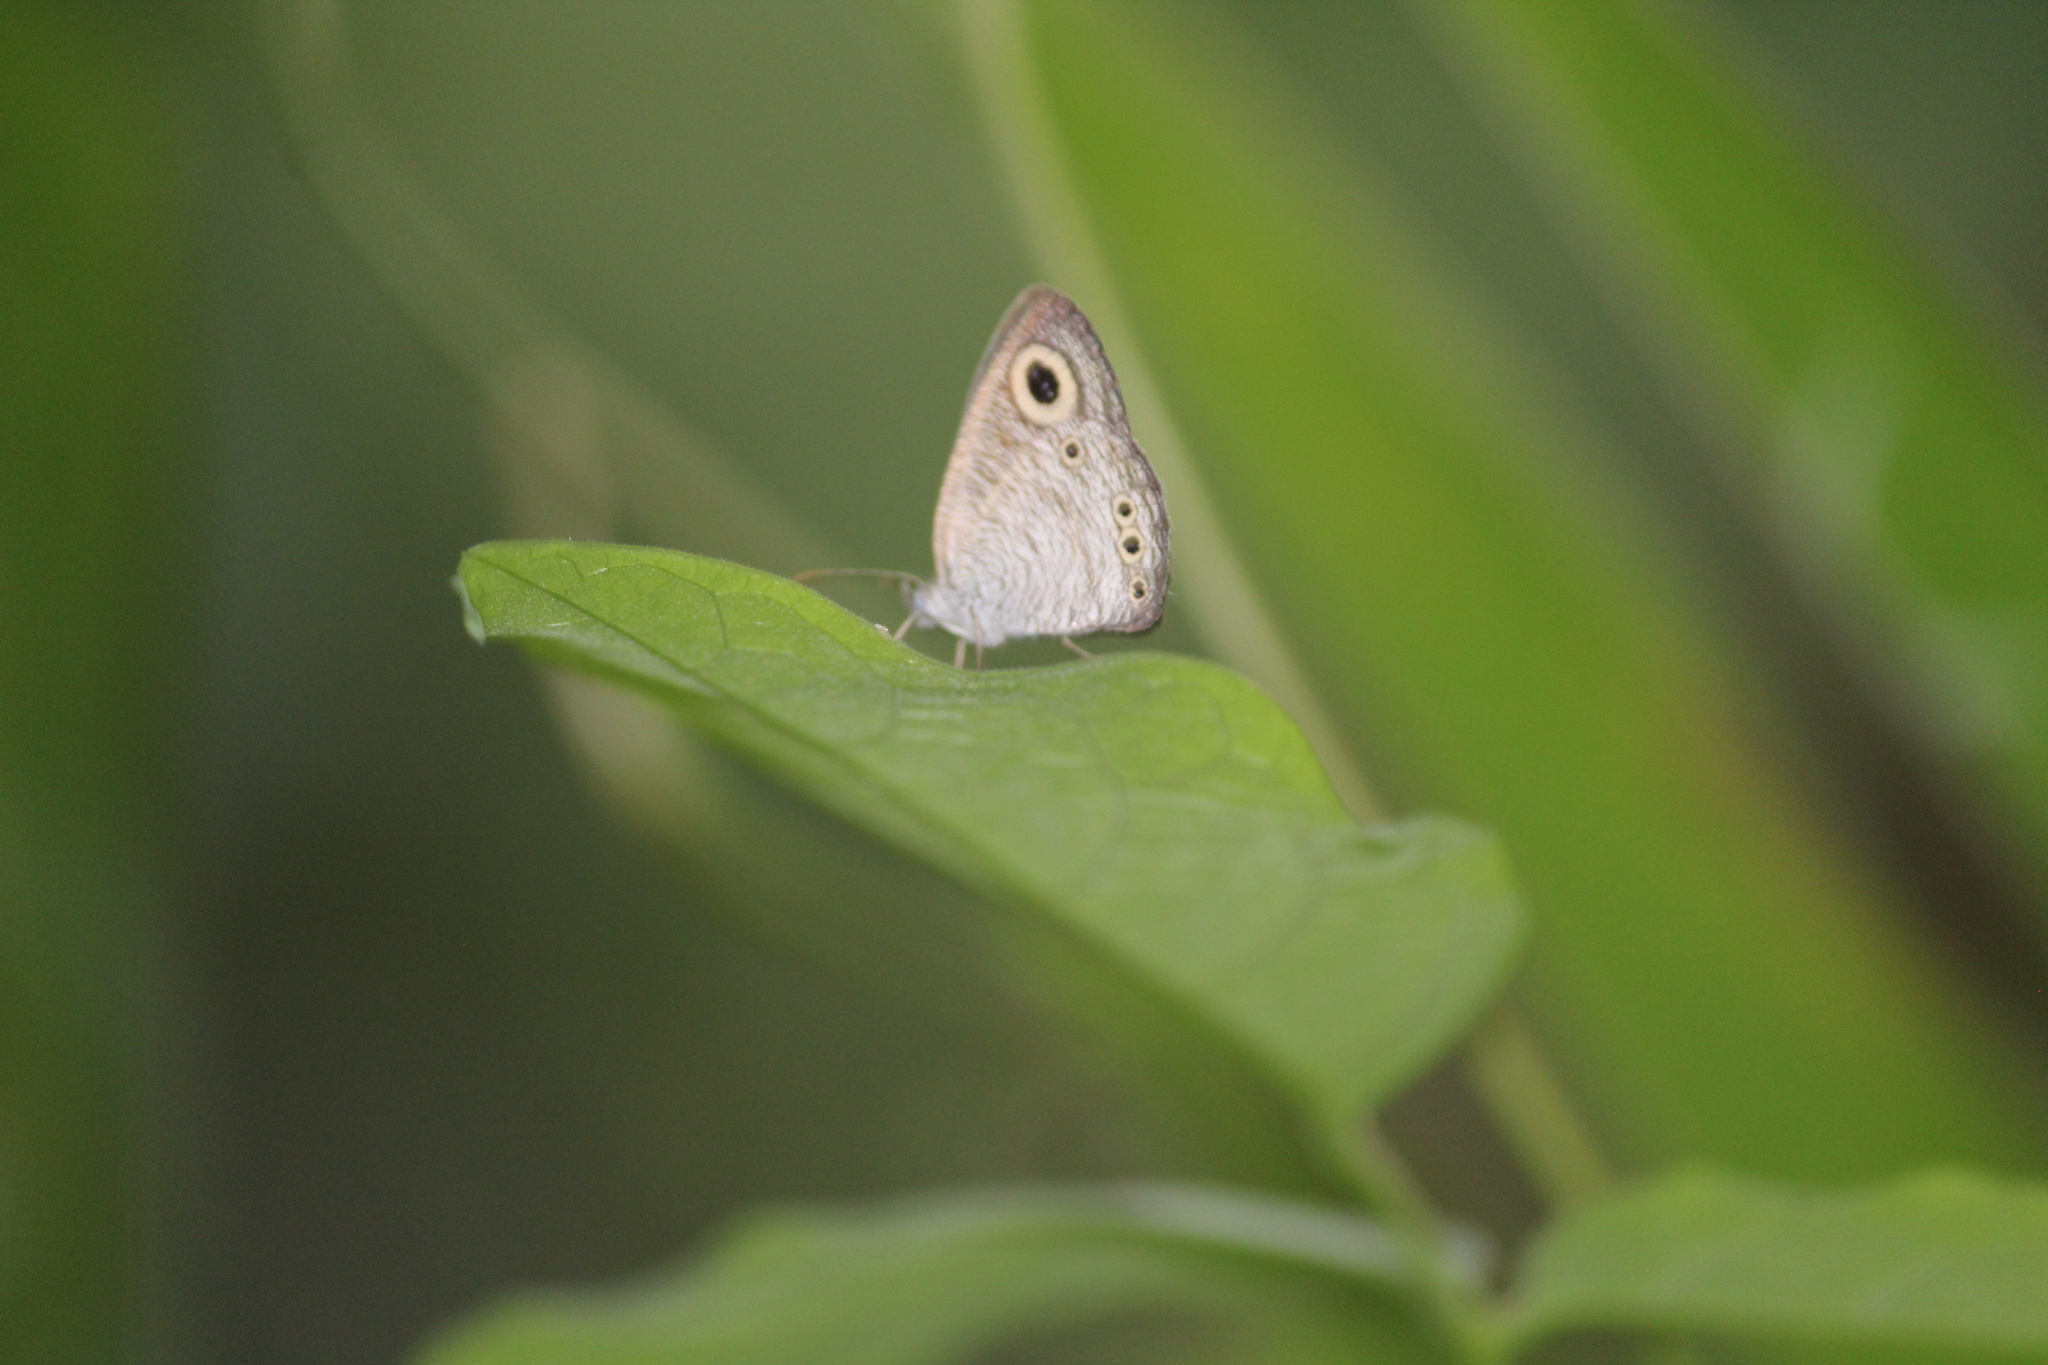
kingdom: Animalia
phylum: Arthropoda
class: Insecta
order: Lepidoptera
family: Nymphalidae
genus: Ypthima
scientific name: Ypthima huebneri
